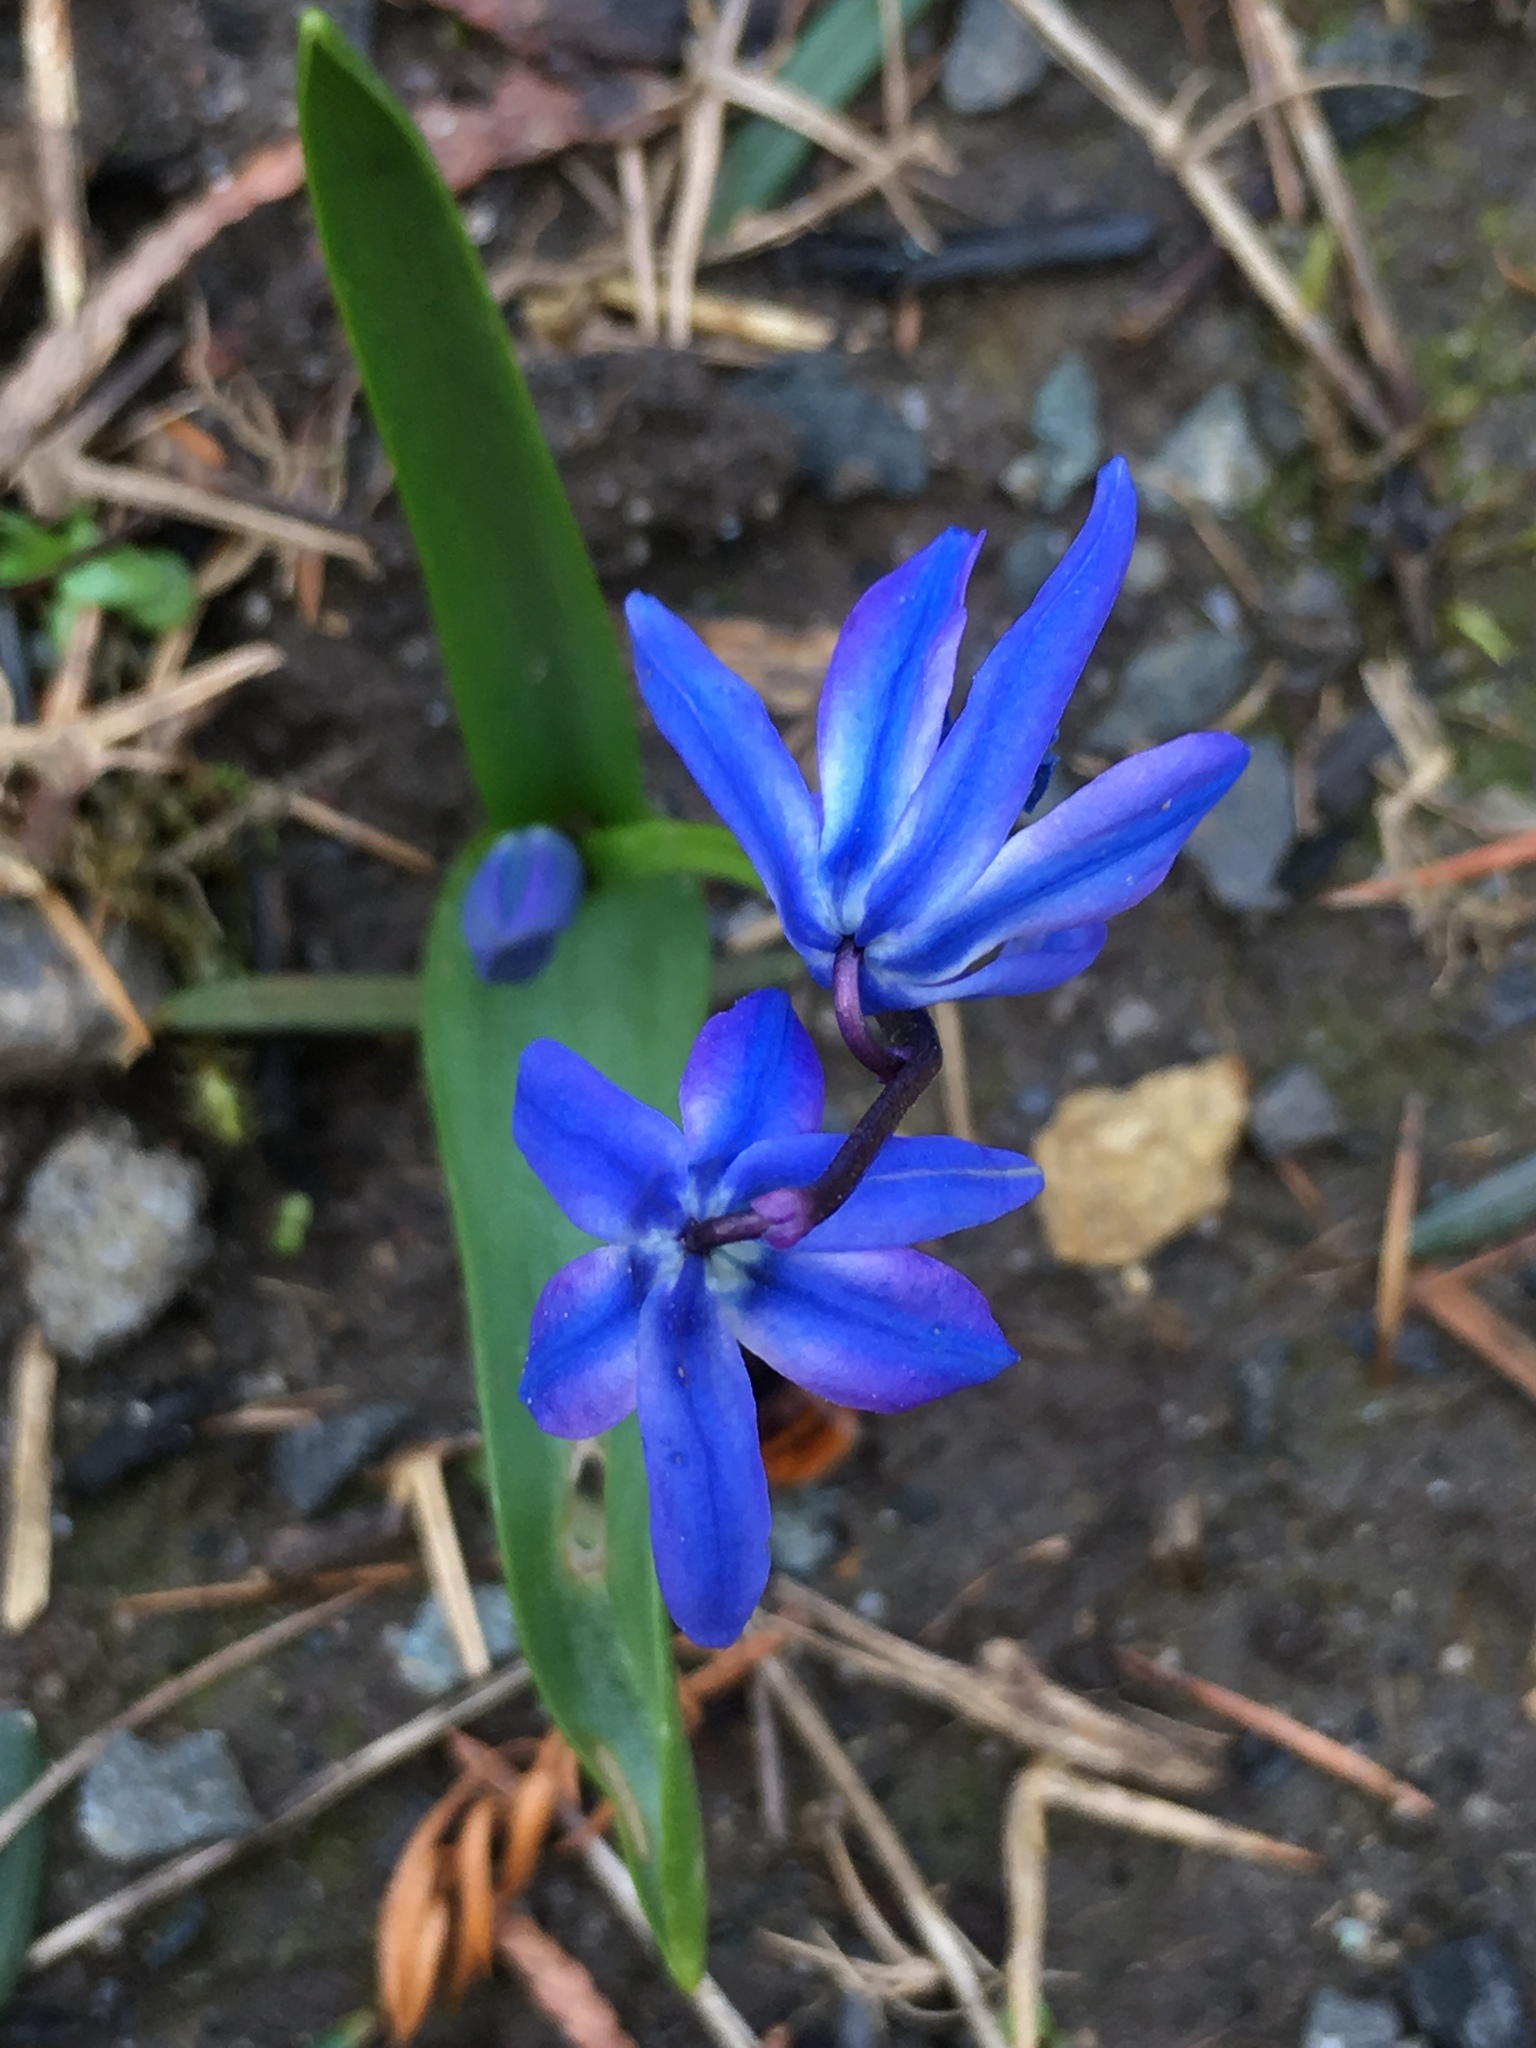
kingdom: Plantae
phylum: Tracheophyta
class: Liliopsida
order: Asparagales
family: Asparagaceae
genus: Scilla
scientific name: Scilla siberica
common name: Siberian squill
